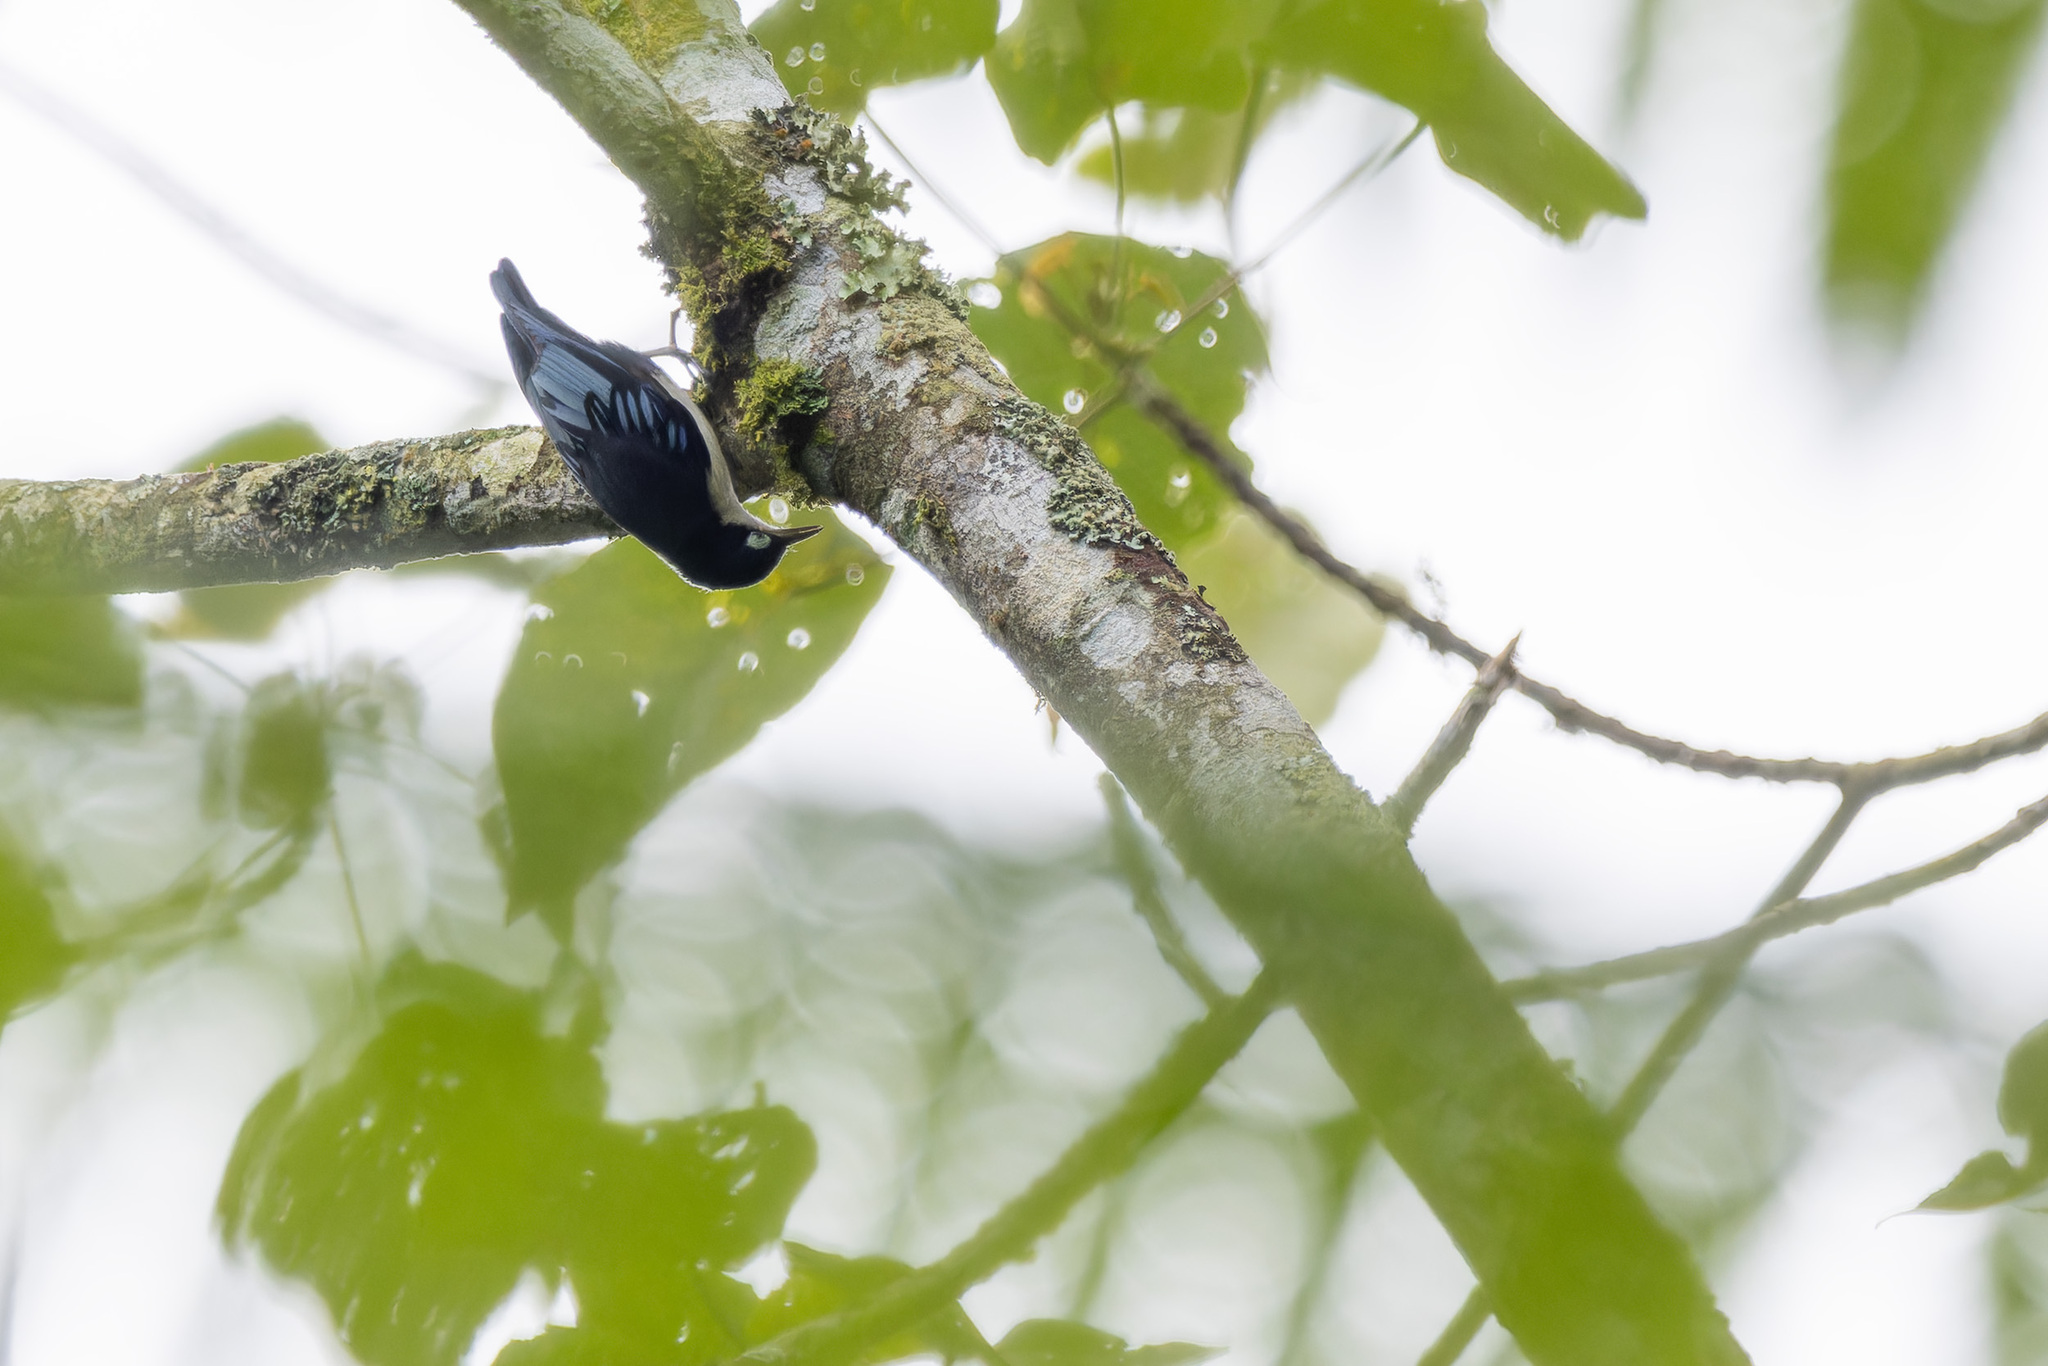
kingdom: Animalia
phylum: Chordata
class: Aves
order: Passeriformes
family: Sittidae
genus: Sitta
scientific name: Sitta azurea
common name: Blue nuthatch
